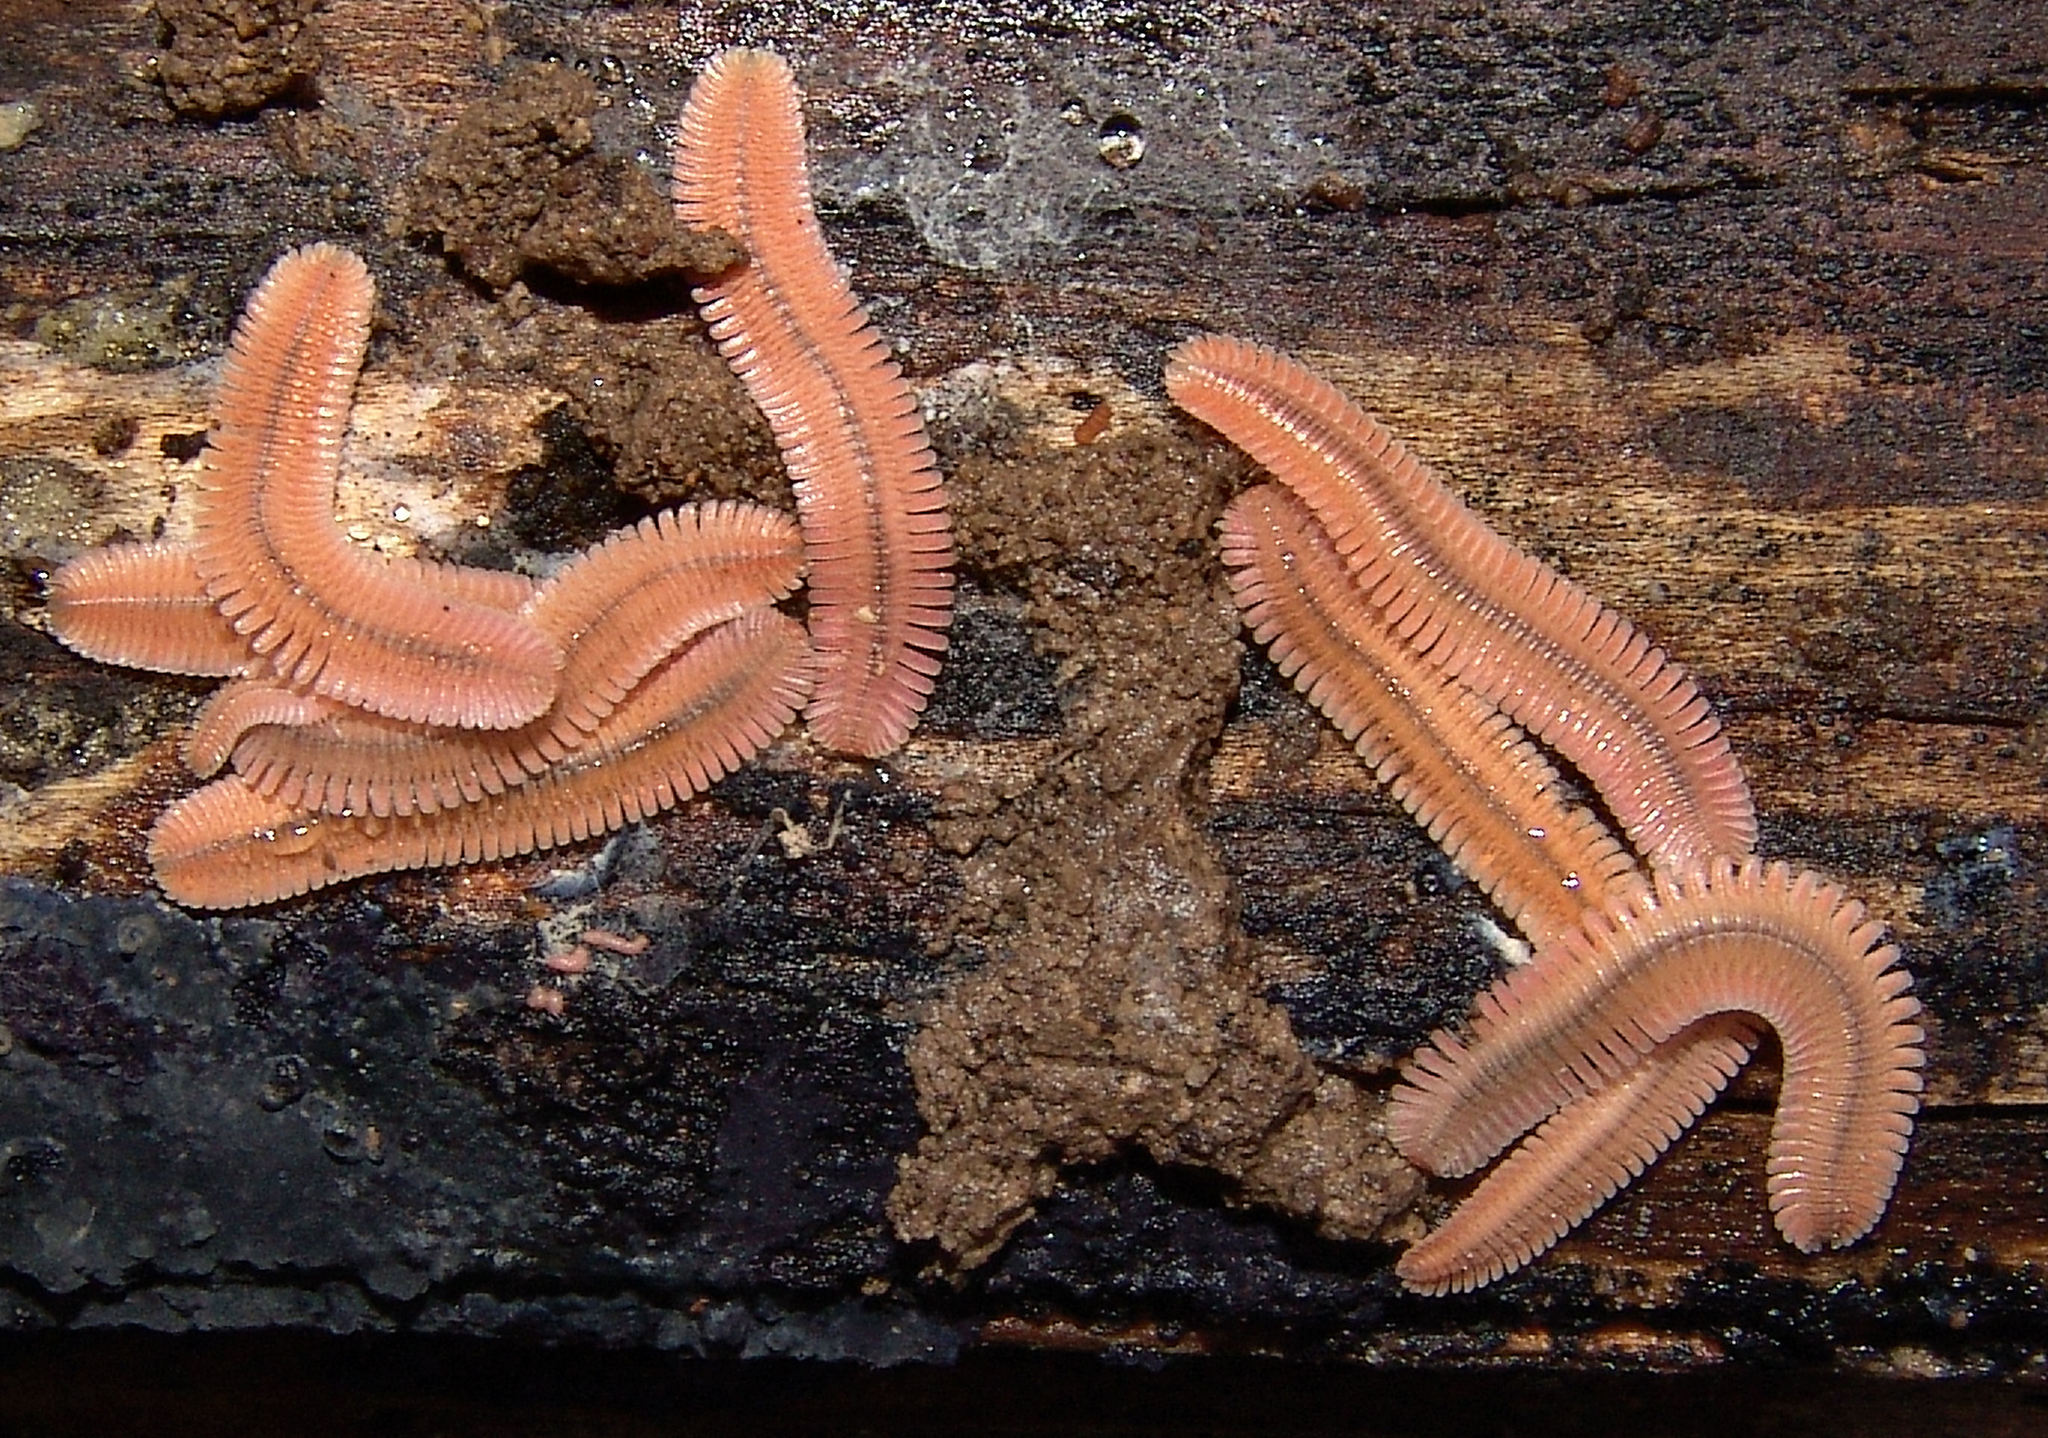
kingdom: Animalia
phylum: Arthropoda
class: Diplopoda
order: Platydesmida
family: Andrognathidae
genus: Brachycybe
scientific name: Brachycybe lecontii
